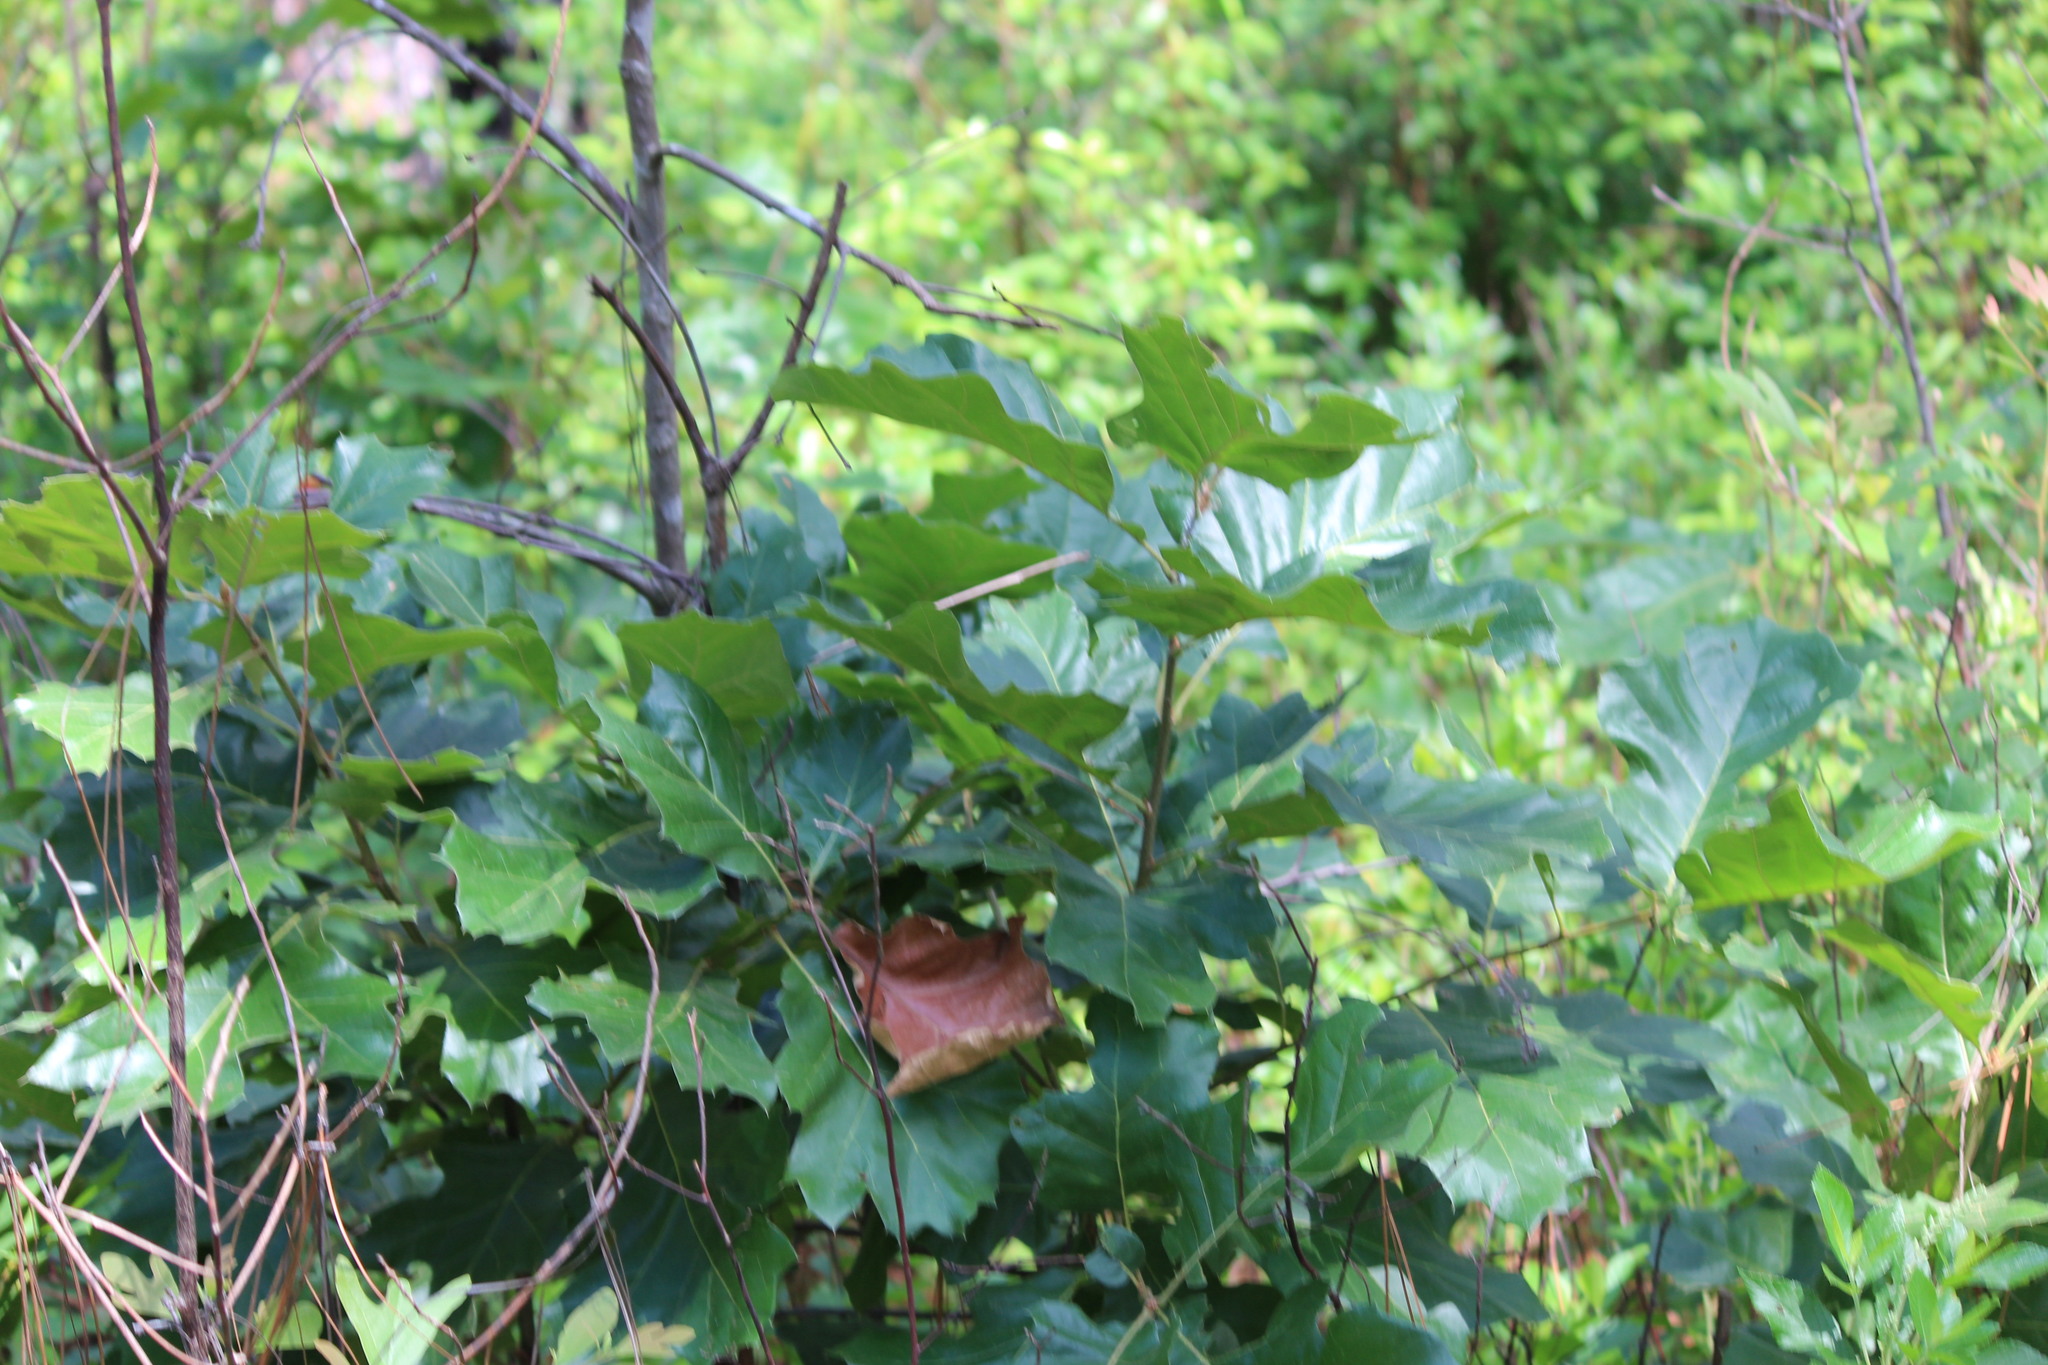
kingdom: Plantae
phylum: Tracheophyta
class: Magnoliopsida
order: Fagales
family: Fagaceae
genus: Quercus
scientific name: Quercus velutina
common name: Black oak
